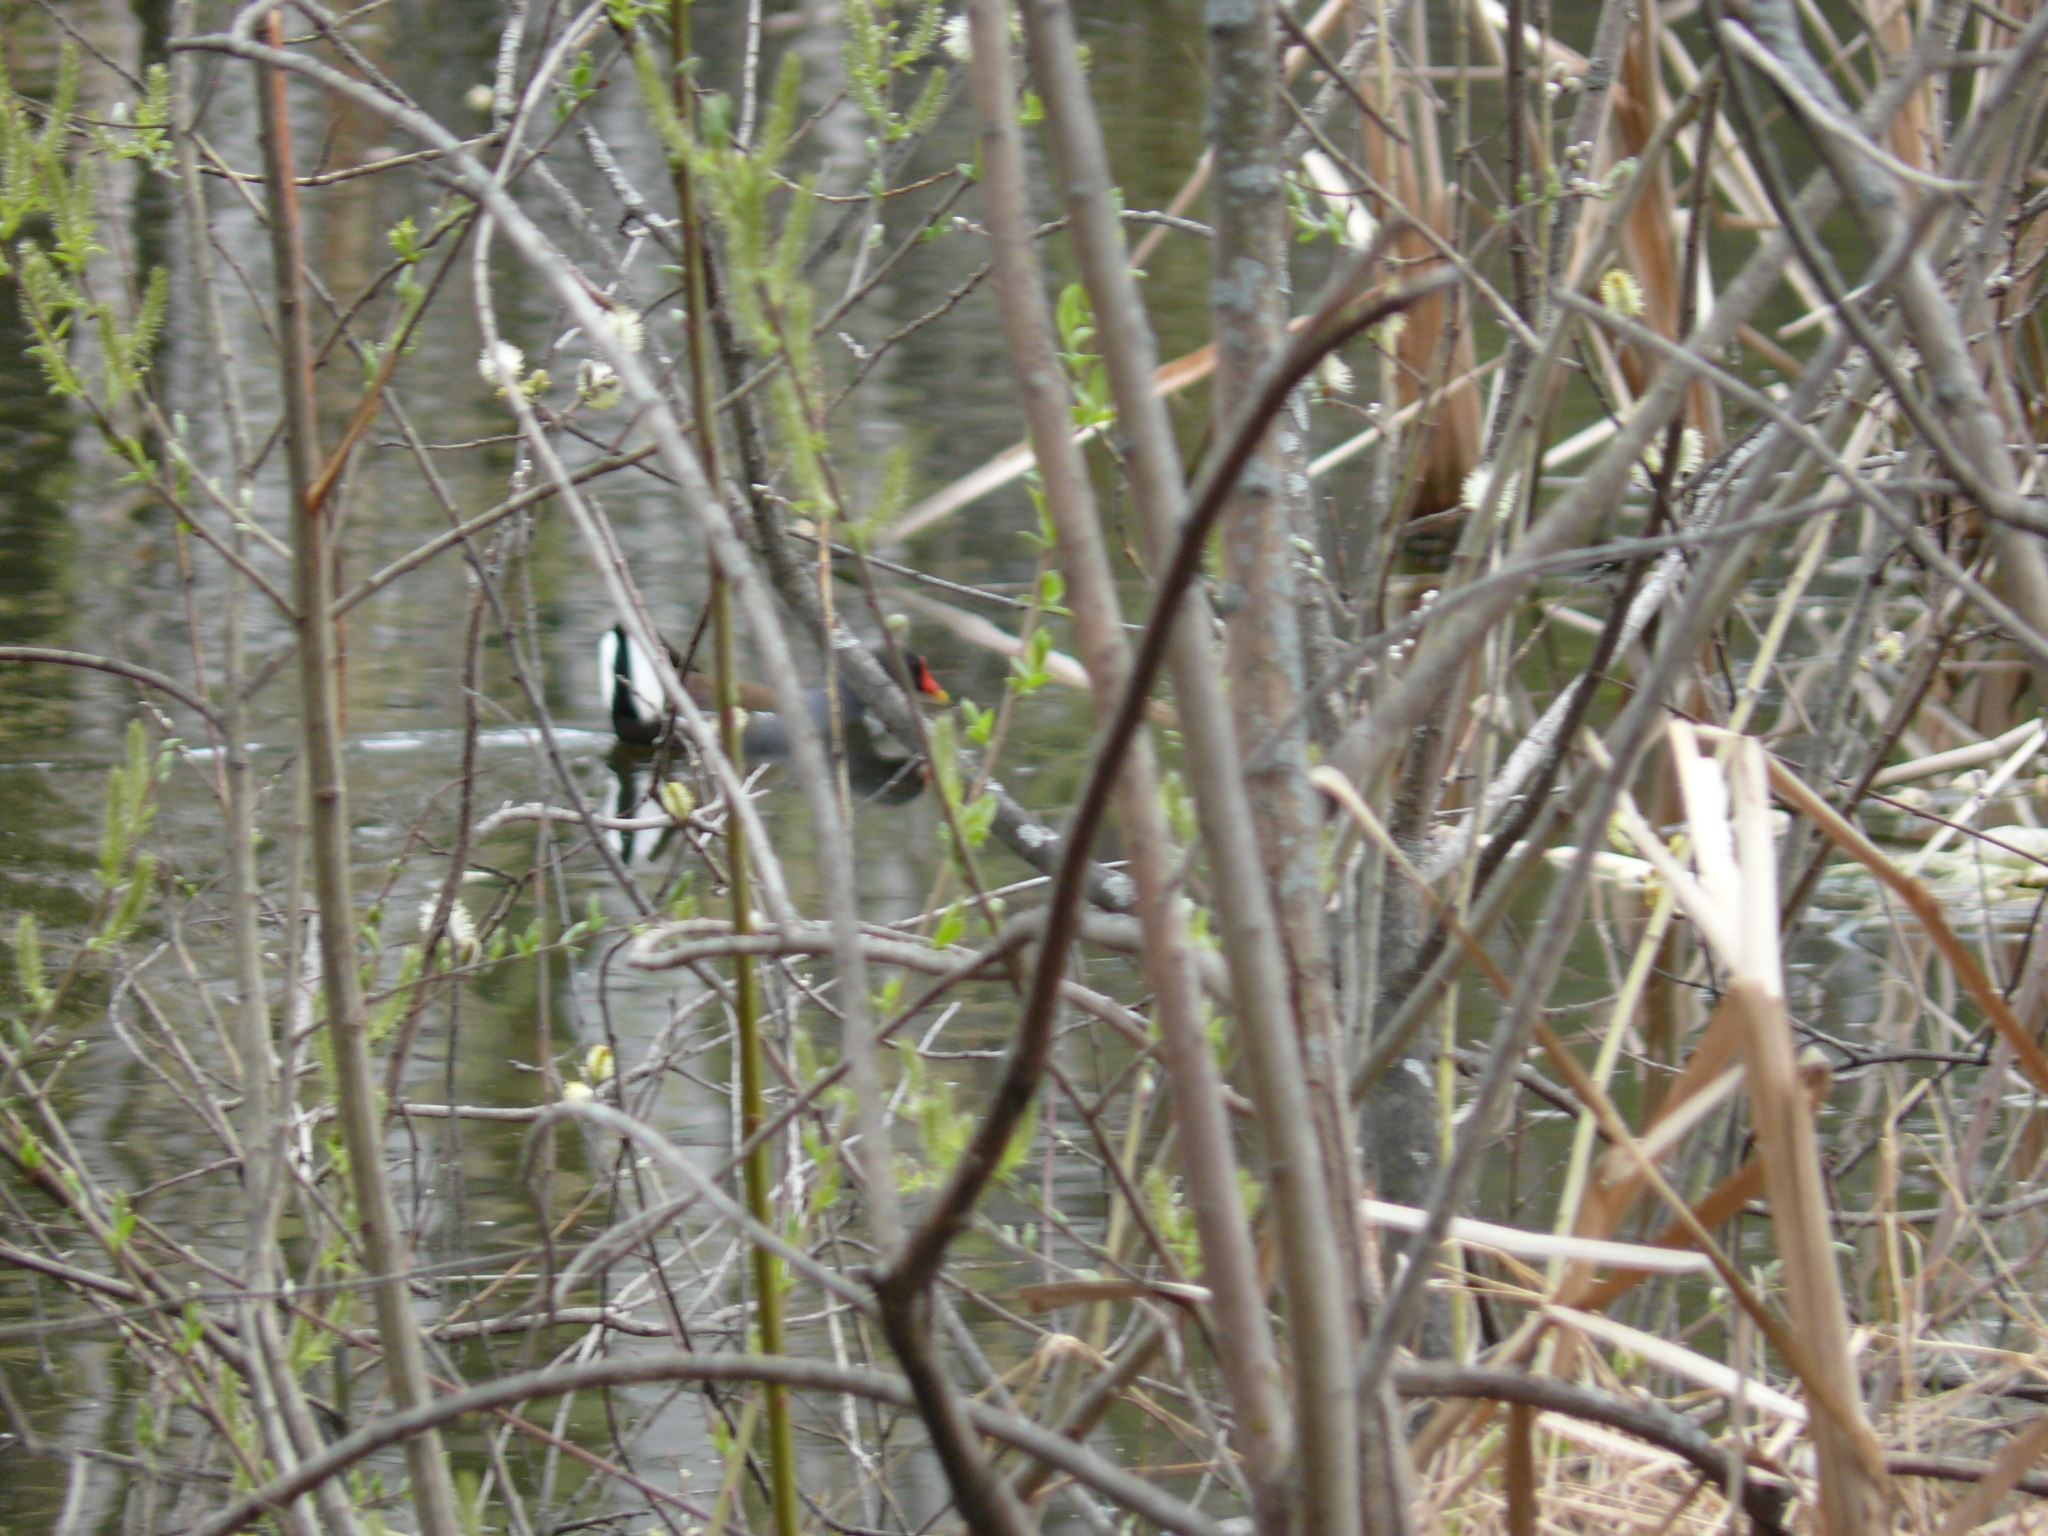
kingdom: Animalia
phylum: Chordata
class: Aves
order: Gruiformes
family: Rallidae
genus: Gallinula
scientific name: Gallinula chloropus
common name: Common moorhen
